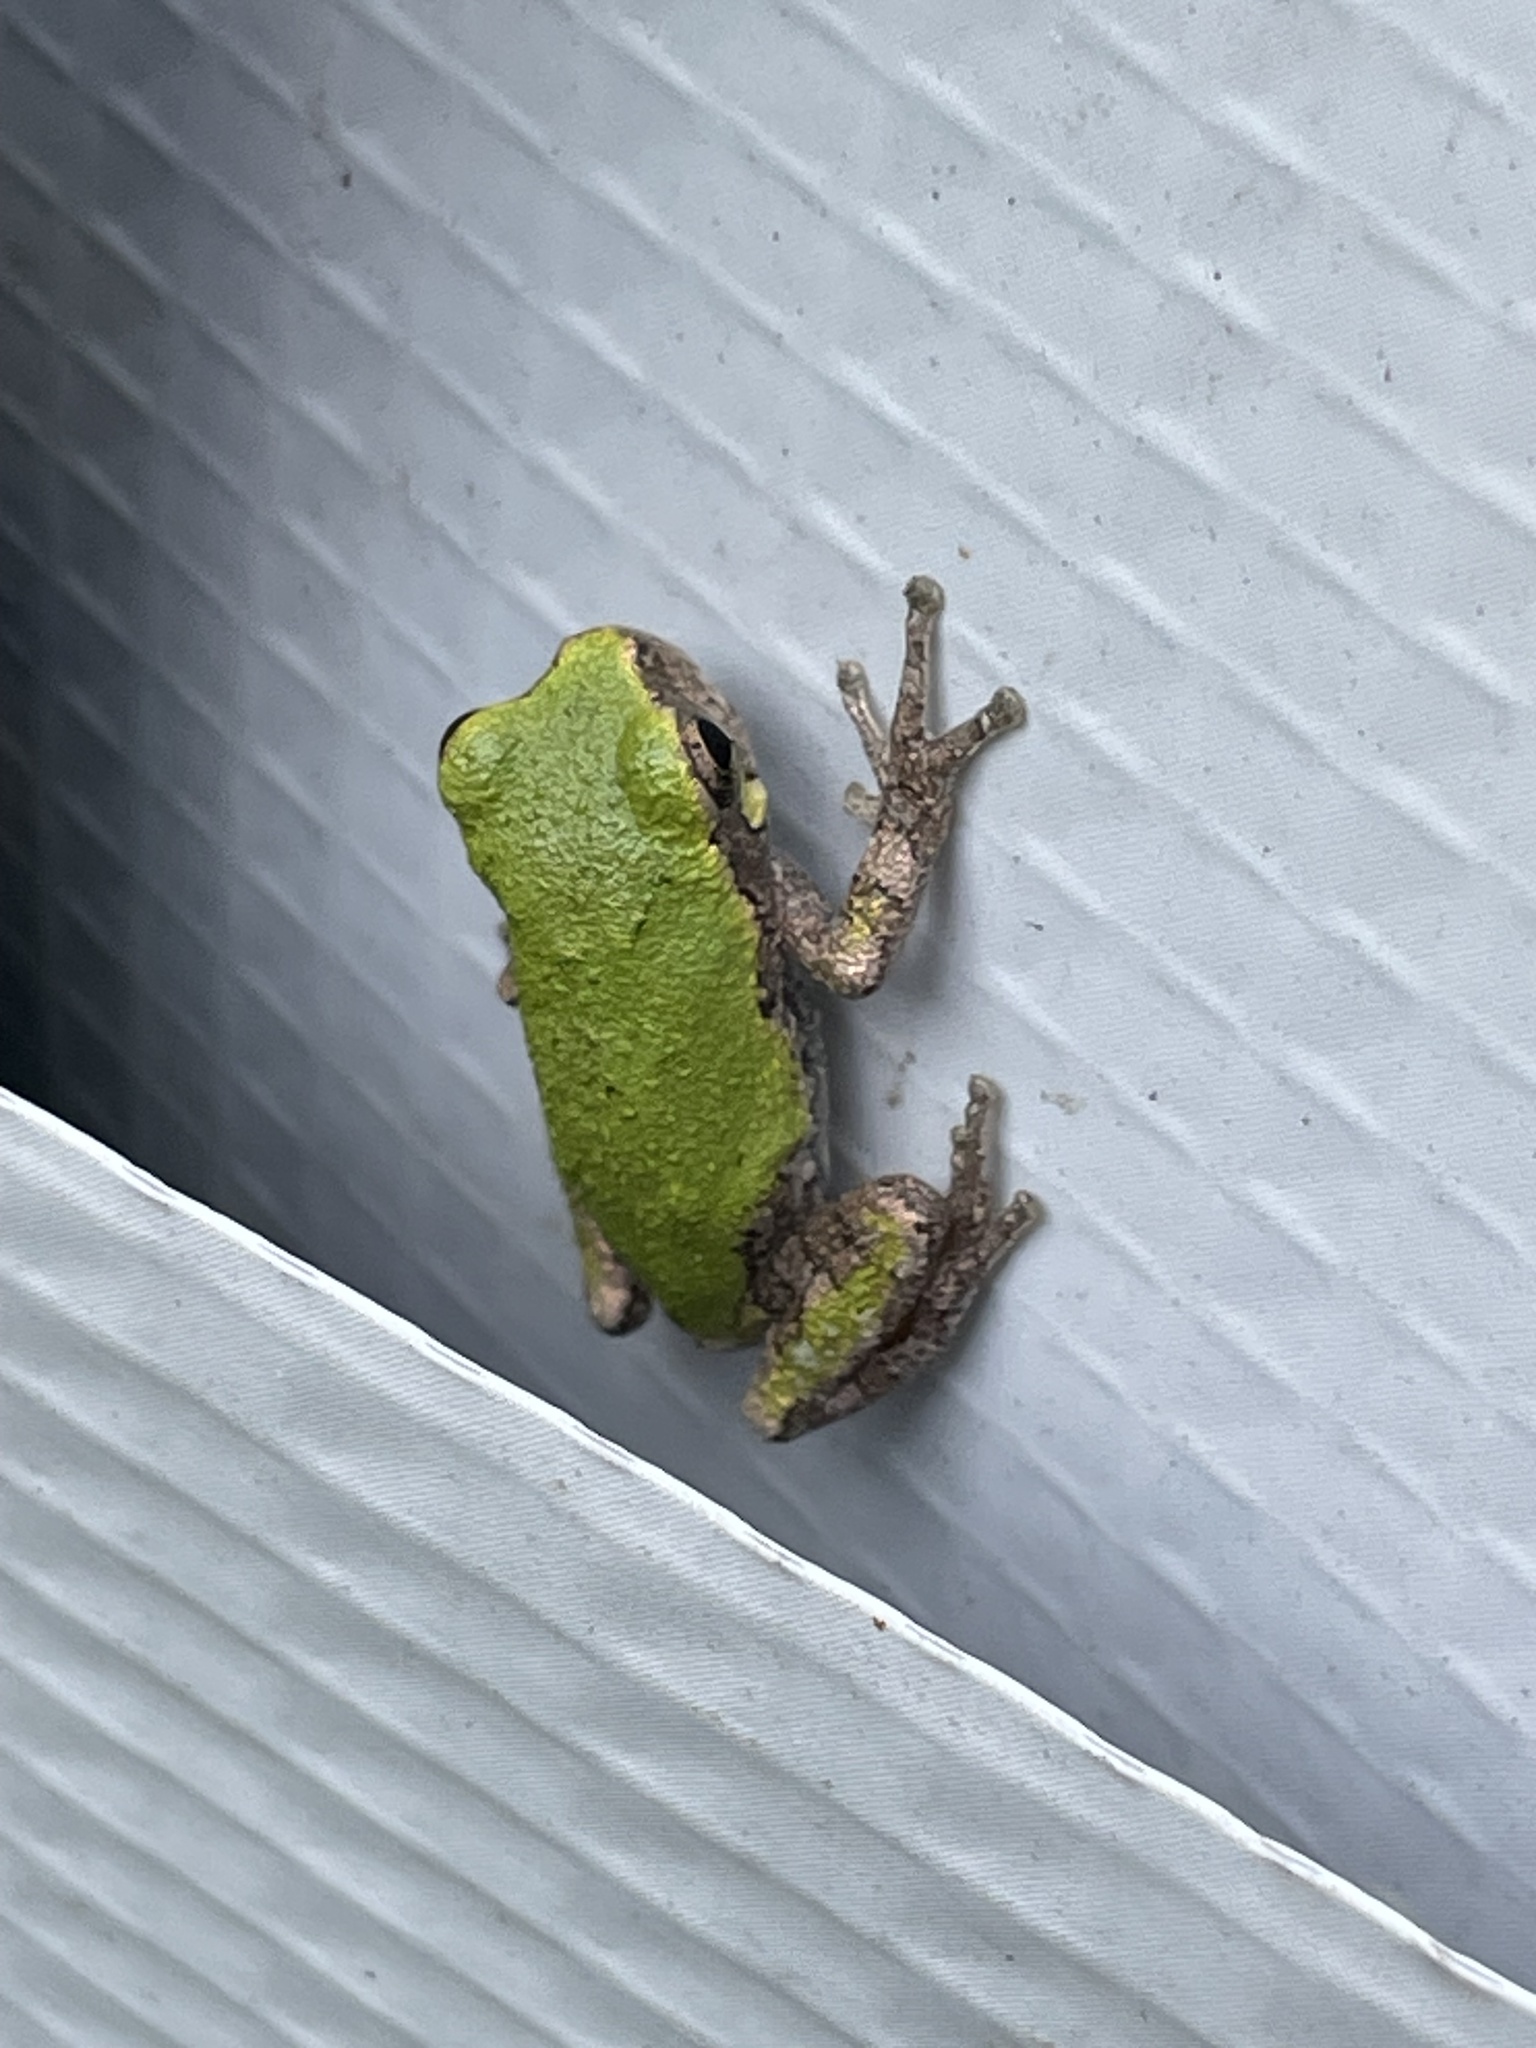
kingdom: Animalia
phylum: Chordata
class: Amphibia
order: Anura
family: Hylidae
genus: Hyla
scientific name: Hyla
